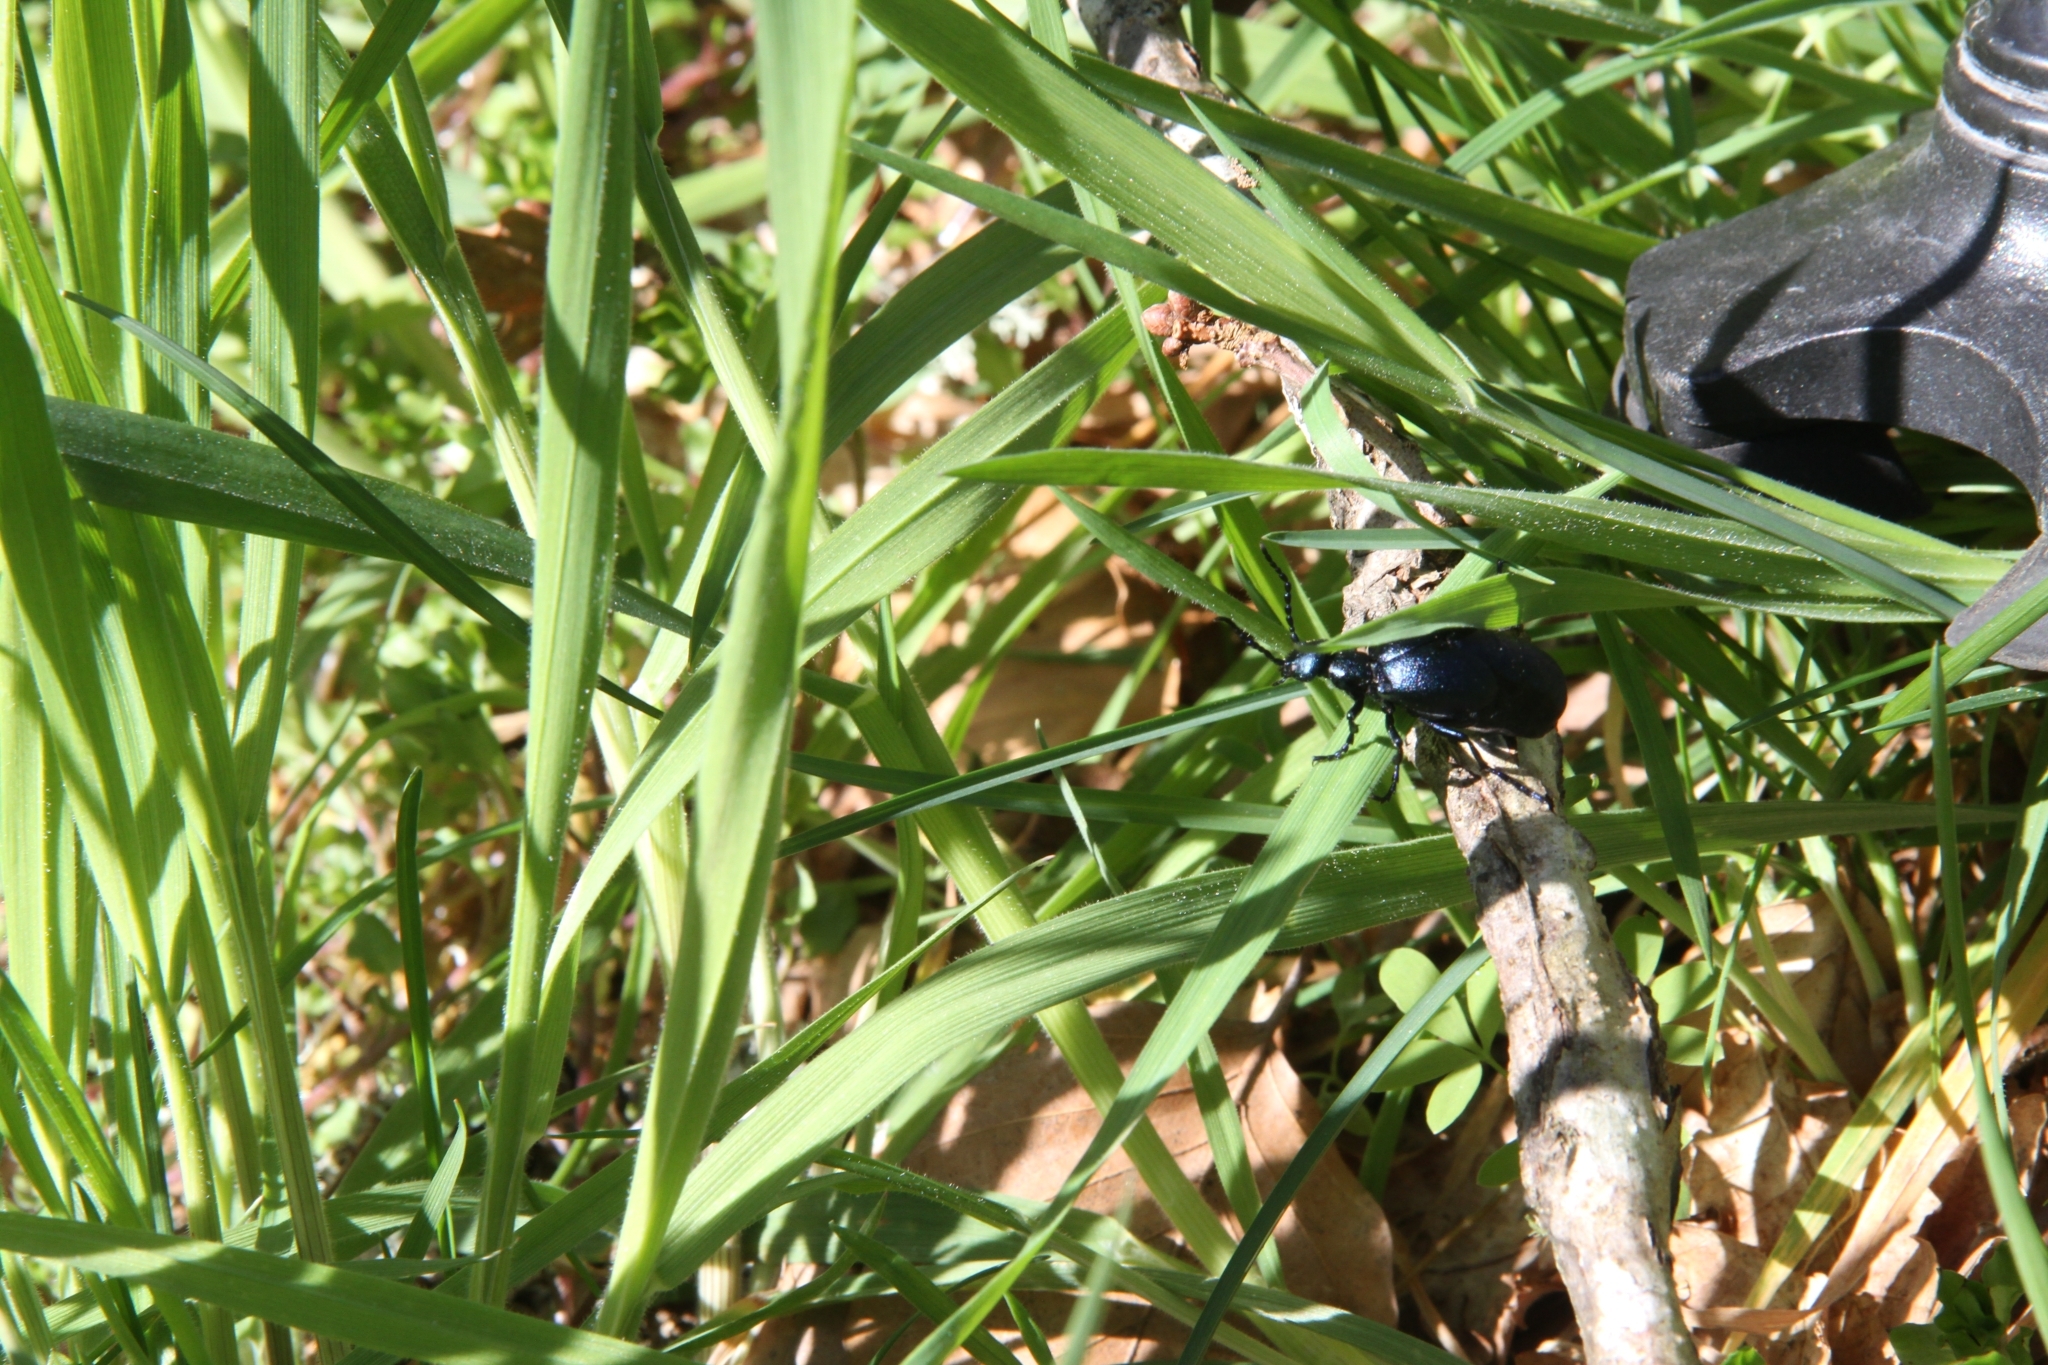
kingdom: Animalia
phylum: Arthropoda
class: Insecta
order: Coleoptera
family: Meloidae
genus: Meloe
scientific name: Meloe violaceus
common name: Violet oil-beetle
